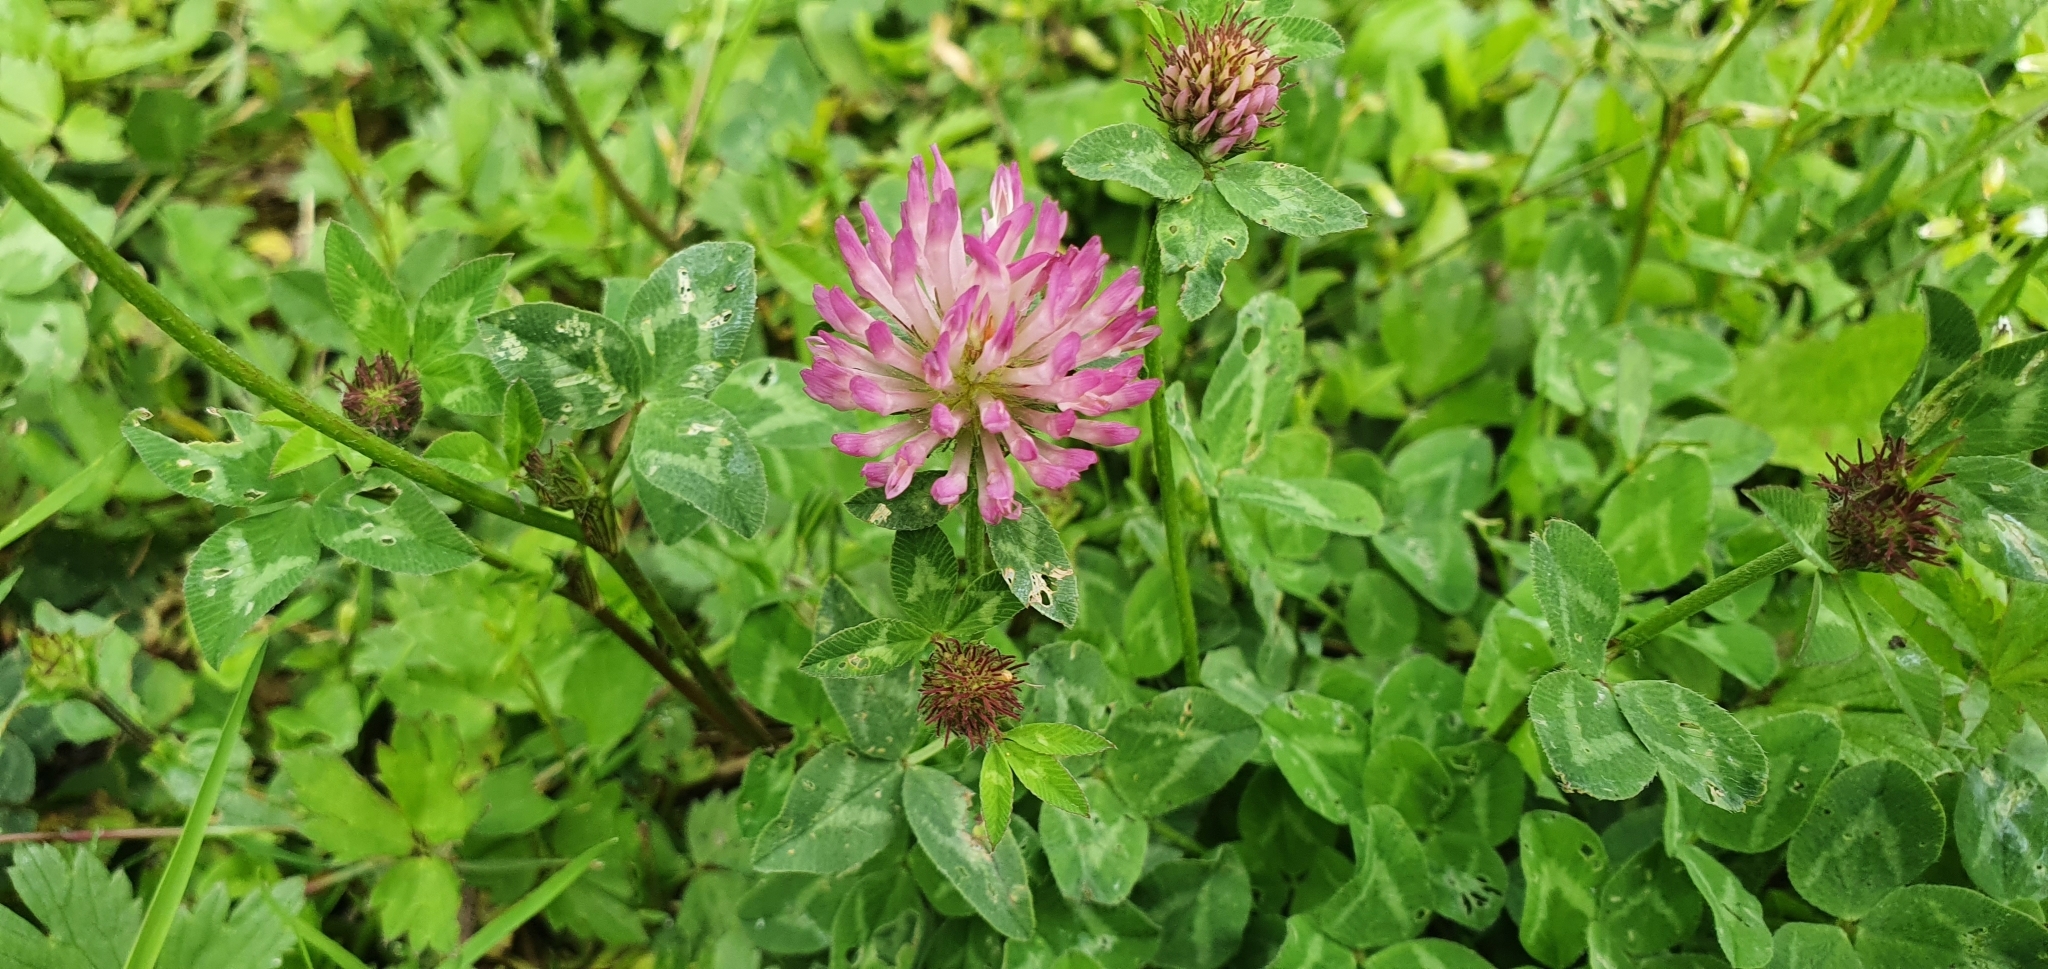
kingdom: Plantae
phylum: Tracheophyta
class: Magnoliopsida
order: Fabales
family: Fabaceae
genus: Trifolium
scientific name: Trifolium pratense
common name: Red clover
